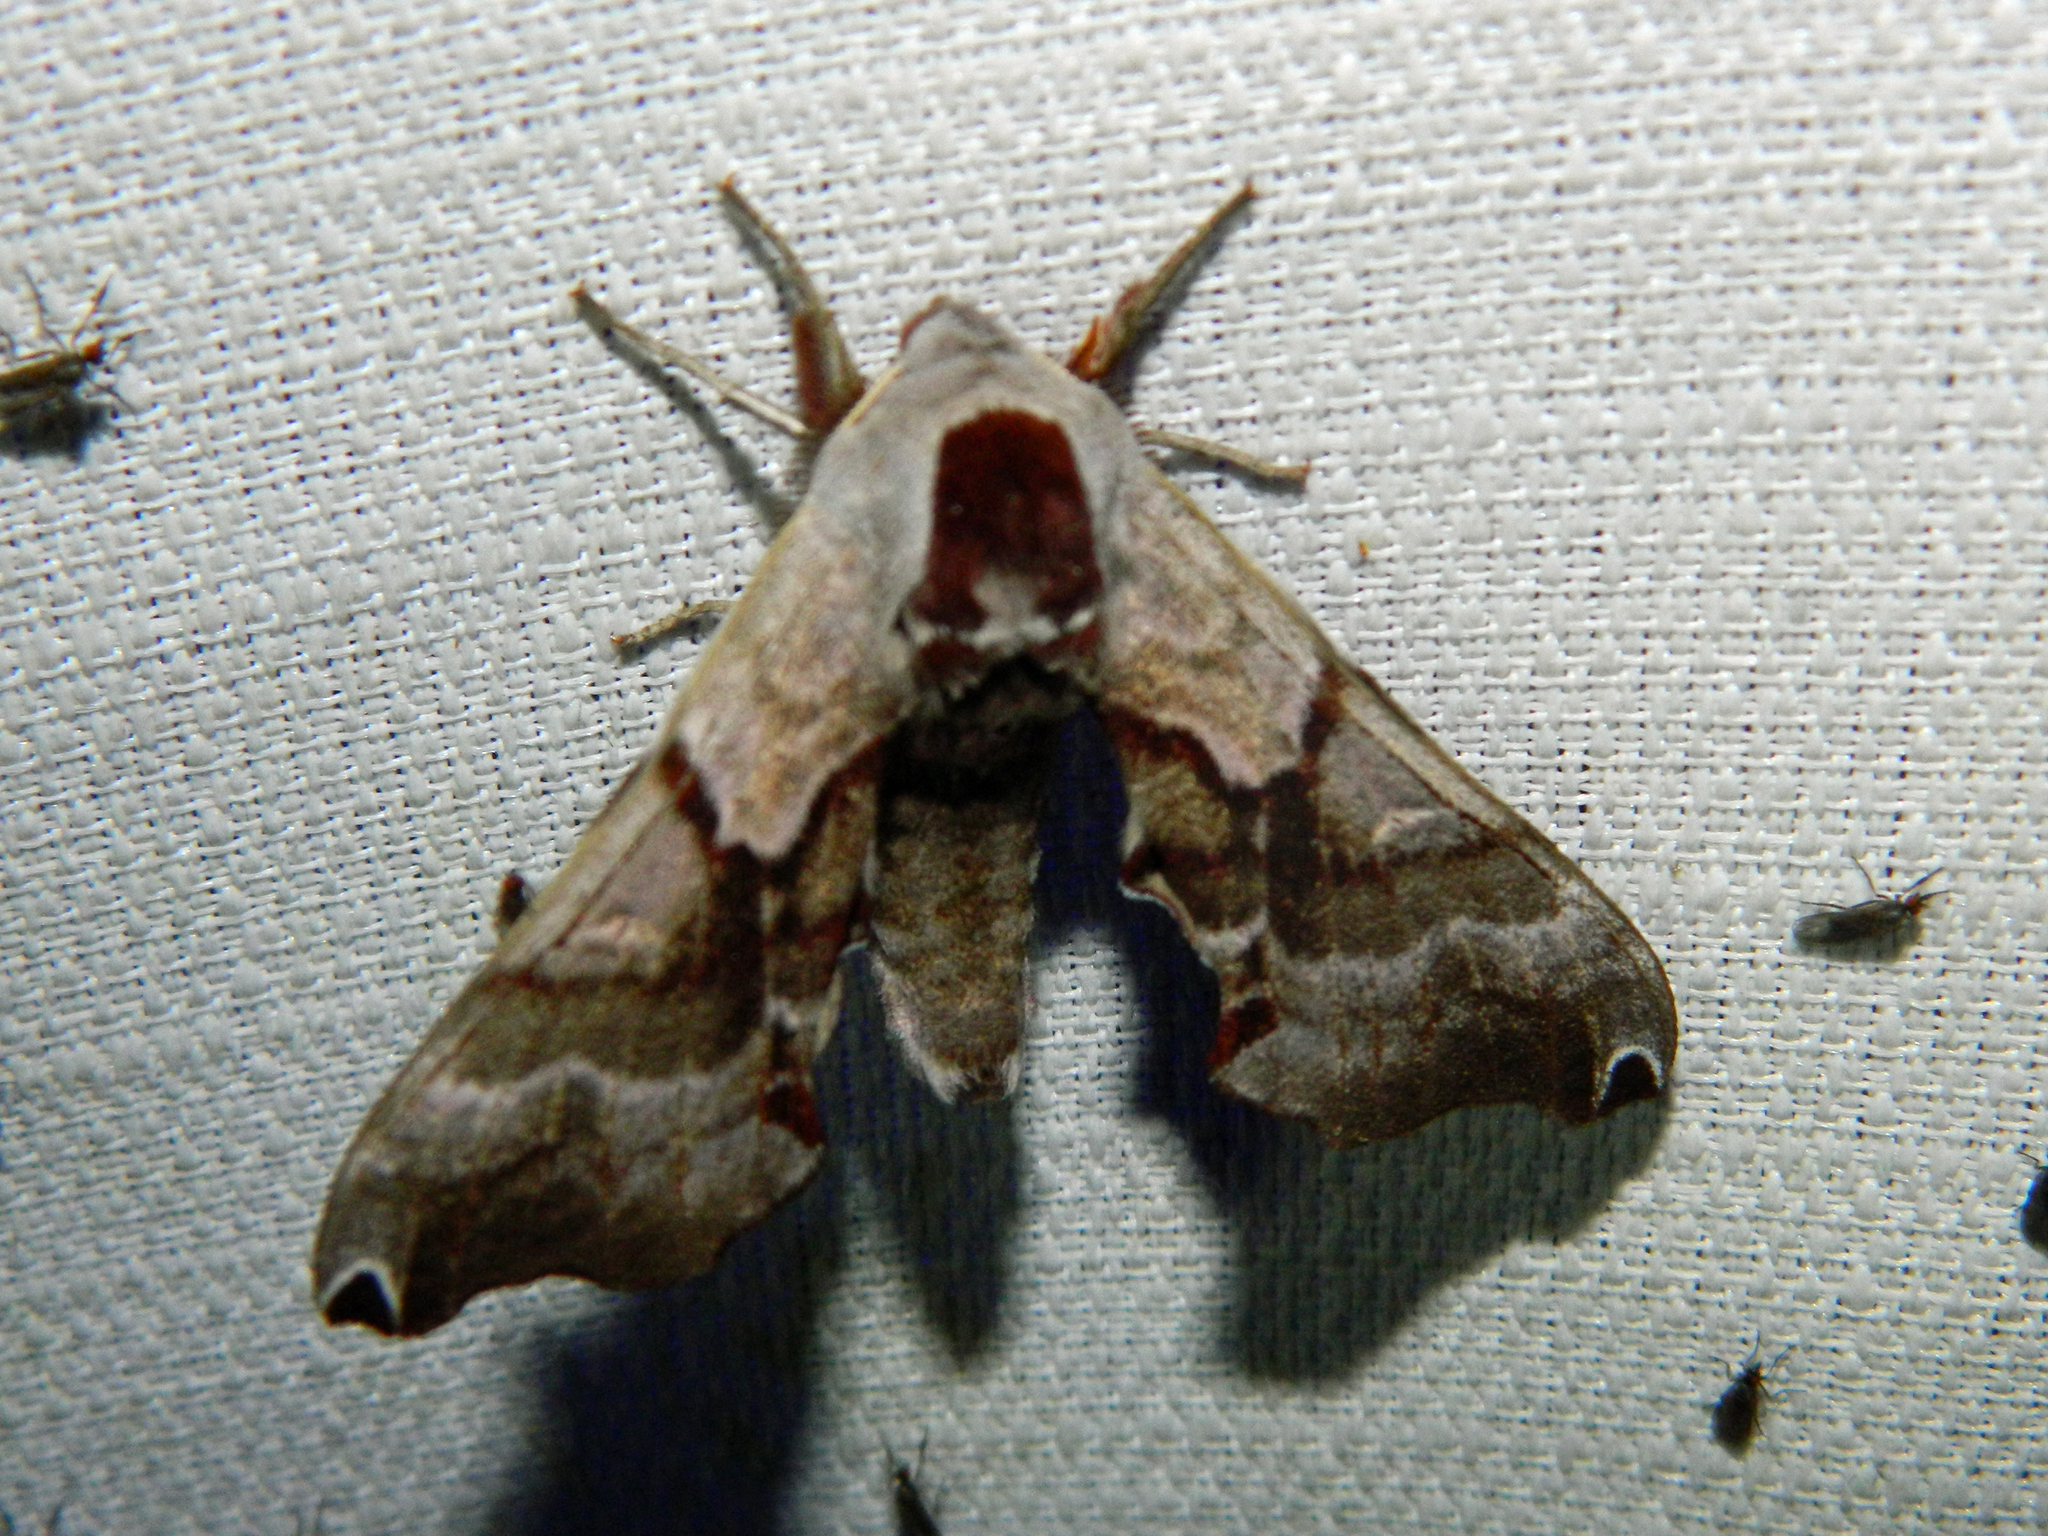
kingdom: Animalia
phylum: Arthropoda
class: Insecta
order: Lepidoptera
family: Sphingidae
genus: Smerinthus
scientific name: Smerinthus jamaicensis
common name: Twin spotted sphinx
